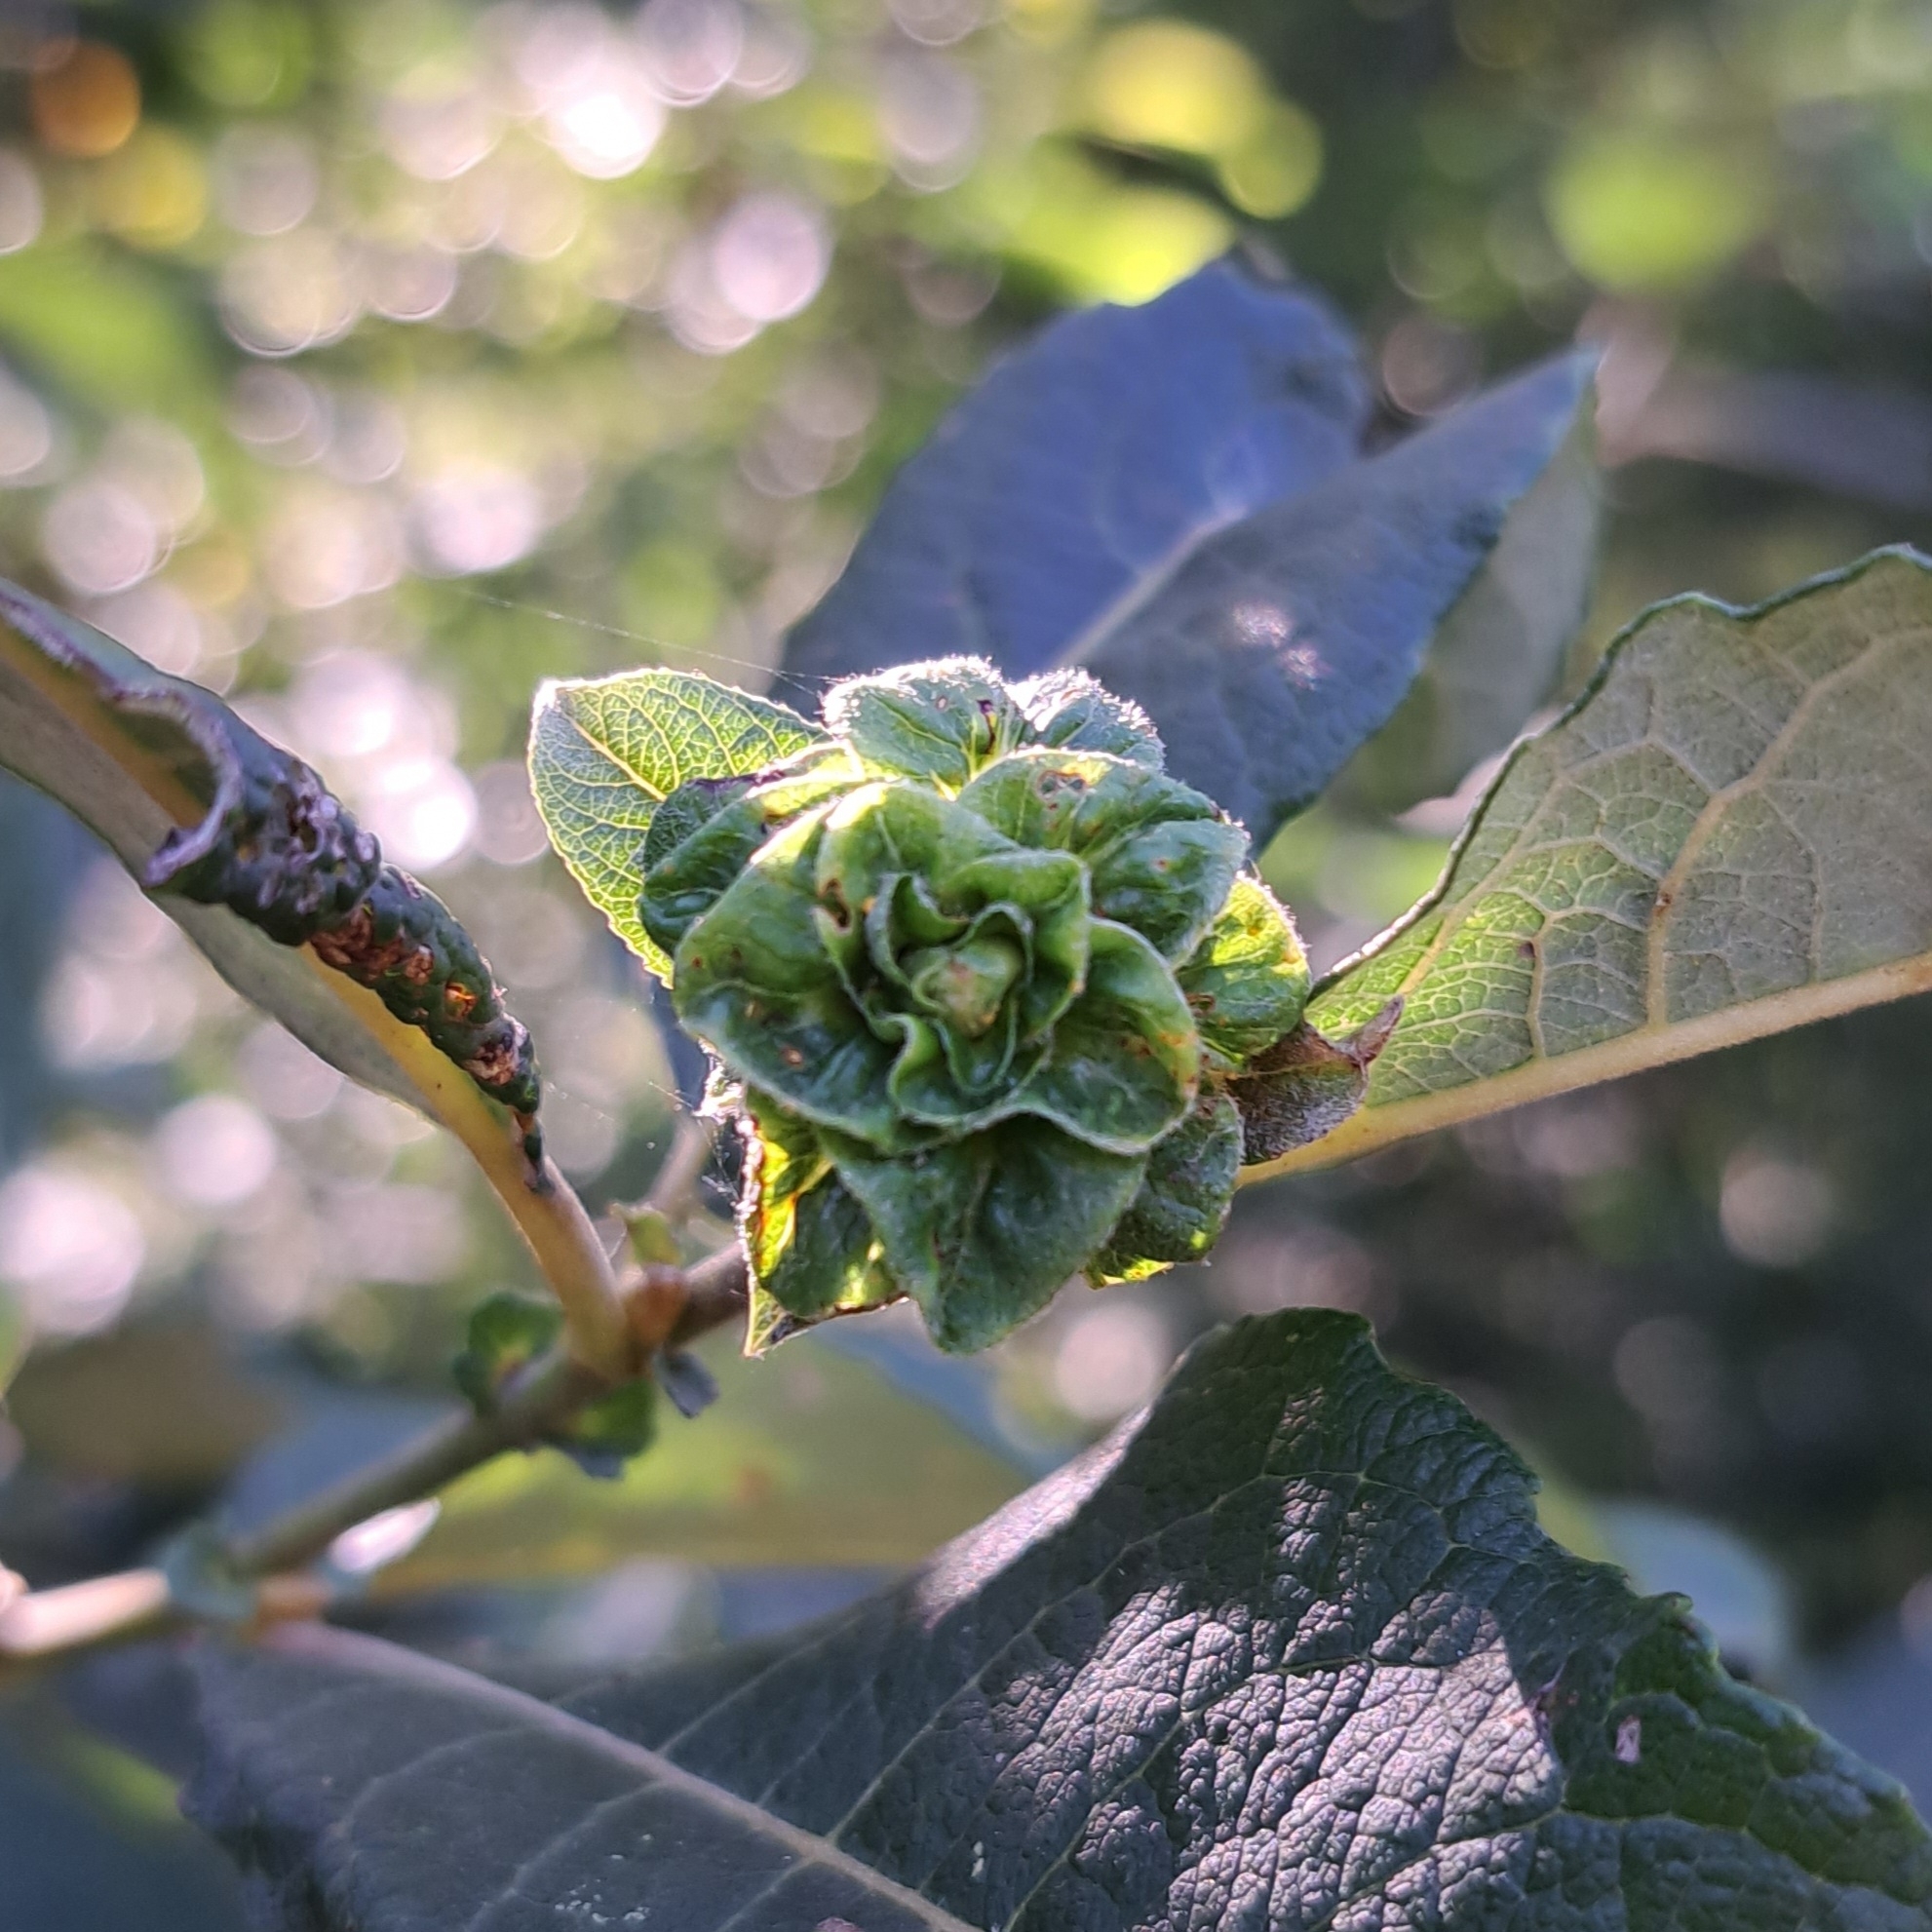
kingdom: Animalia
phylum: Arthropoda
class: Insecta
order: Diptera
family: Cecidomyiidae
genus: Rabdophaga
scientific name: Rabdophaga rosaria
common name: Willow rose gall midge
